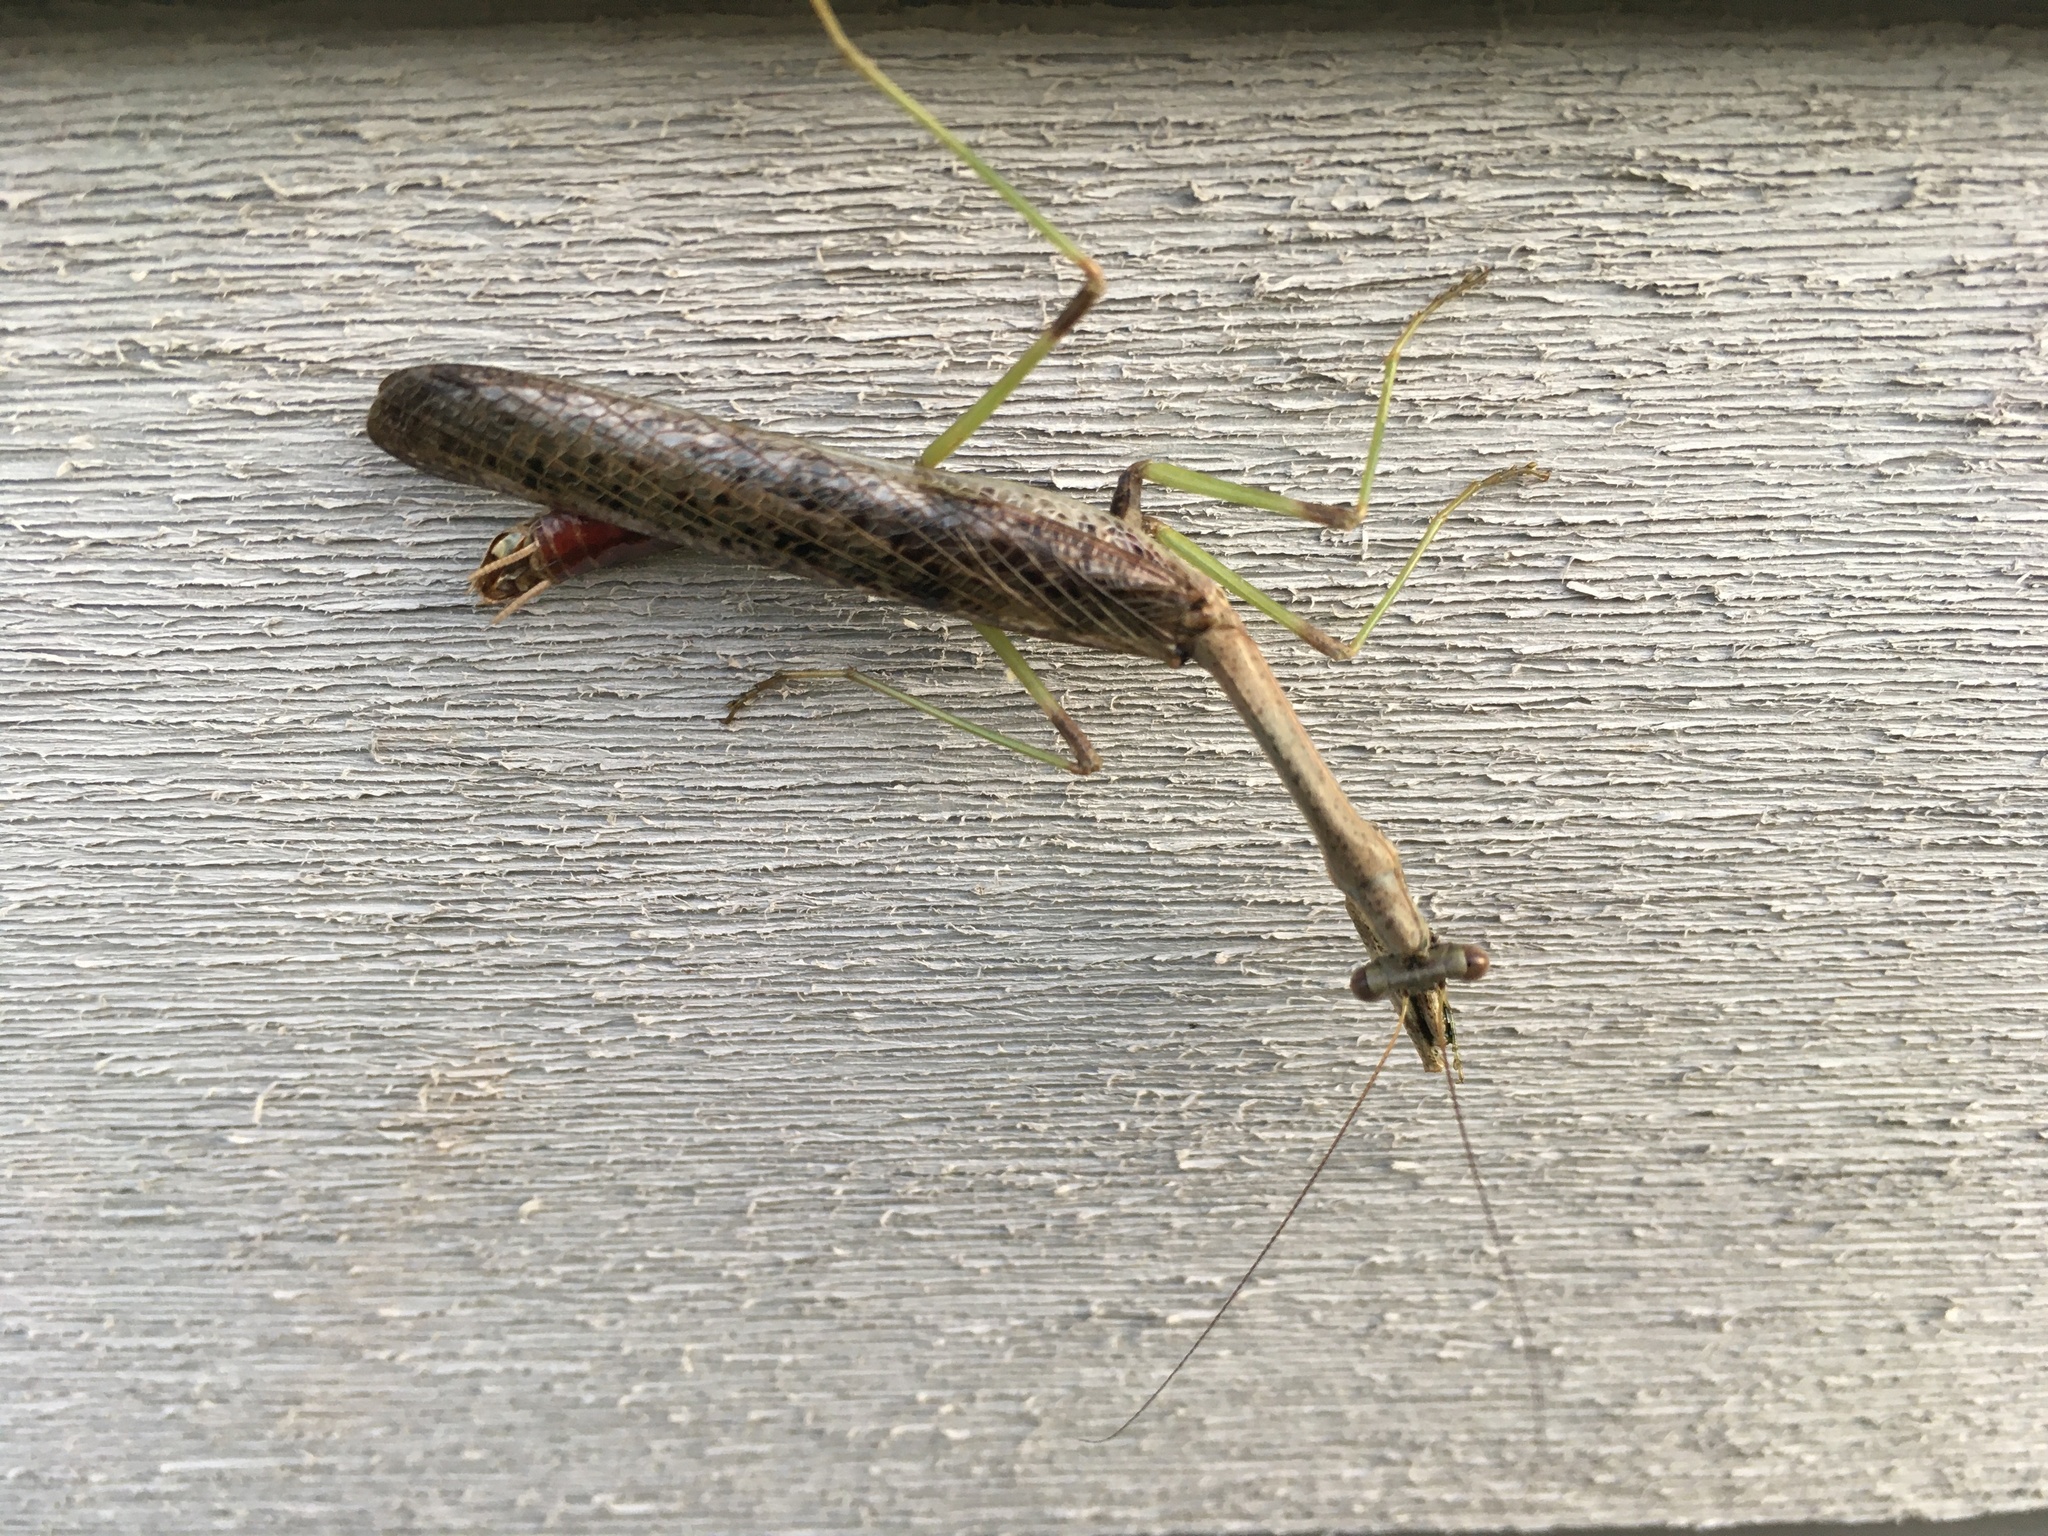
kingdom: Animalia
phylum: Arthropoda
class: Insecta
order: Mantodea
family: Mantidae
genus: Stagmomantis
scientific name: Stagmomantis carolina
